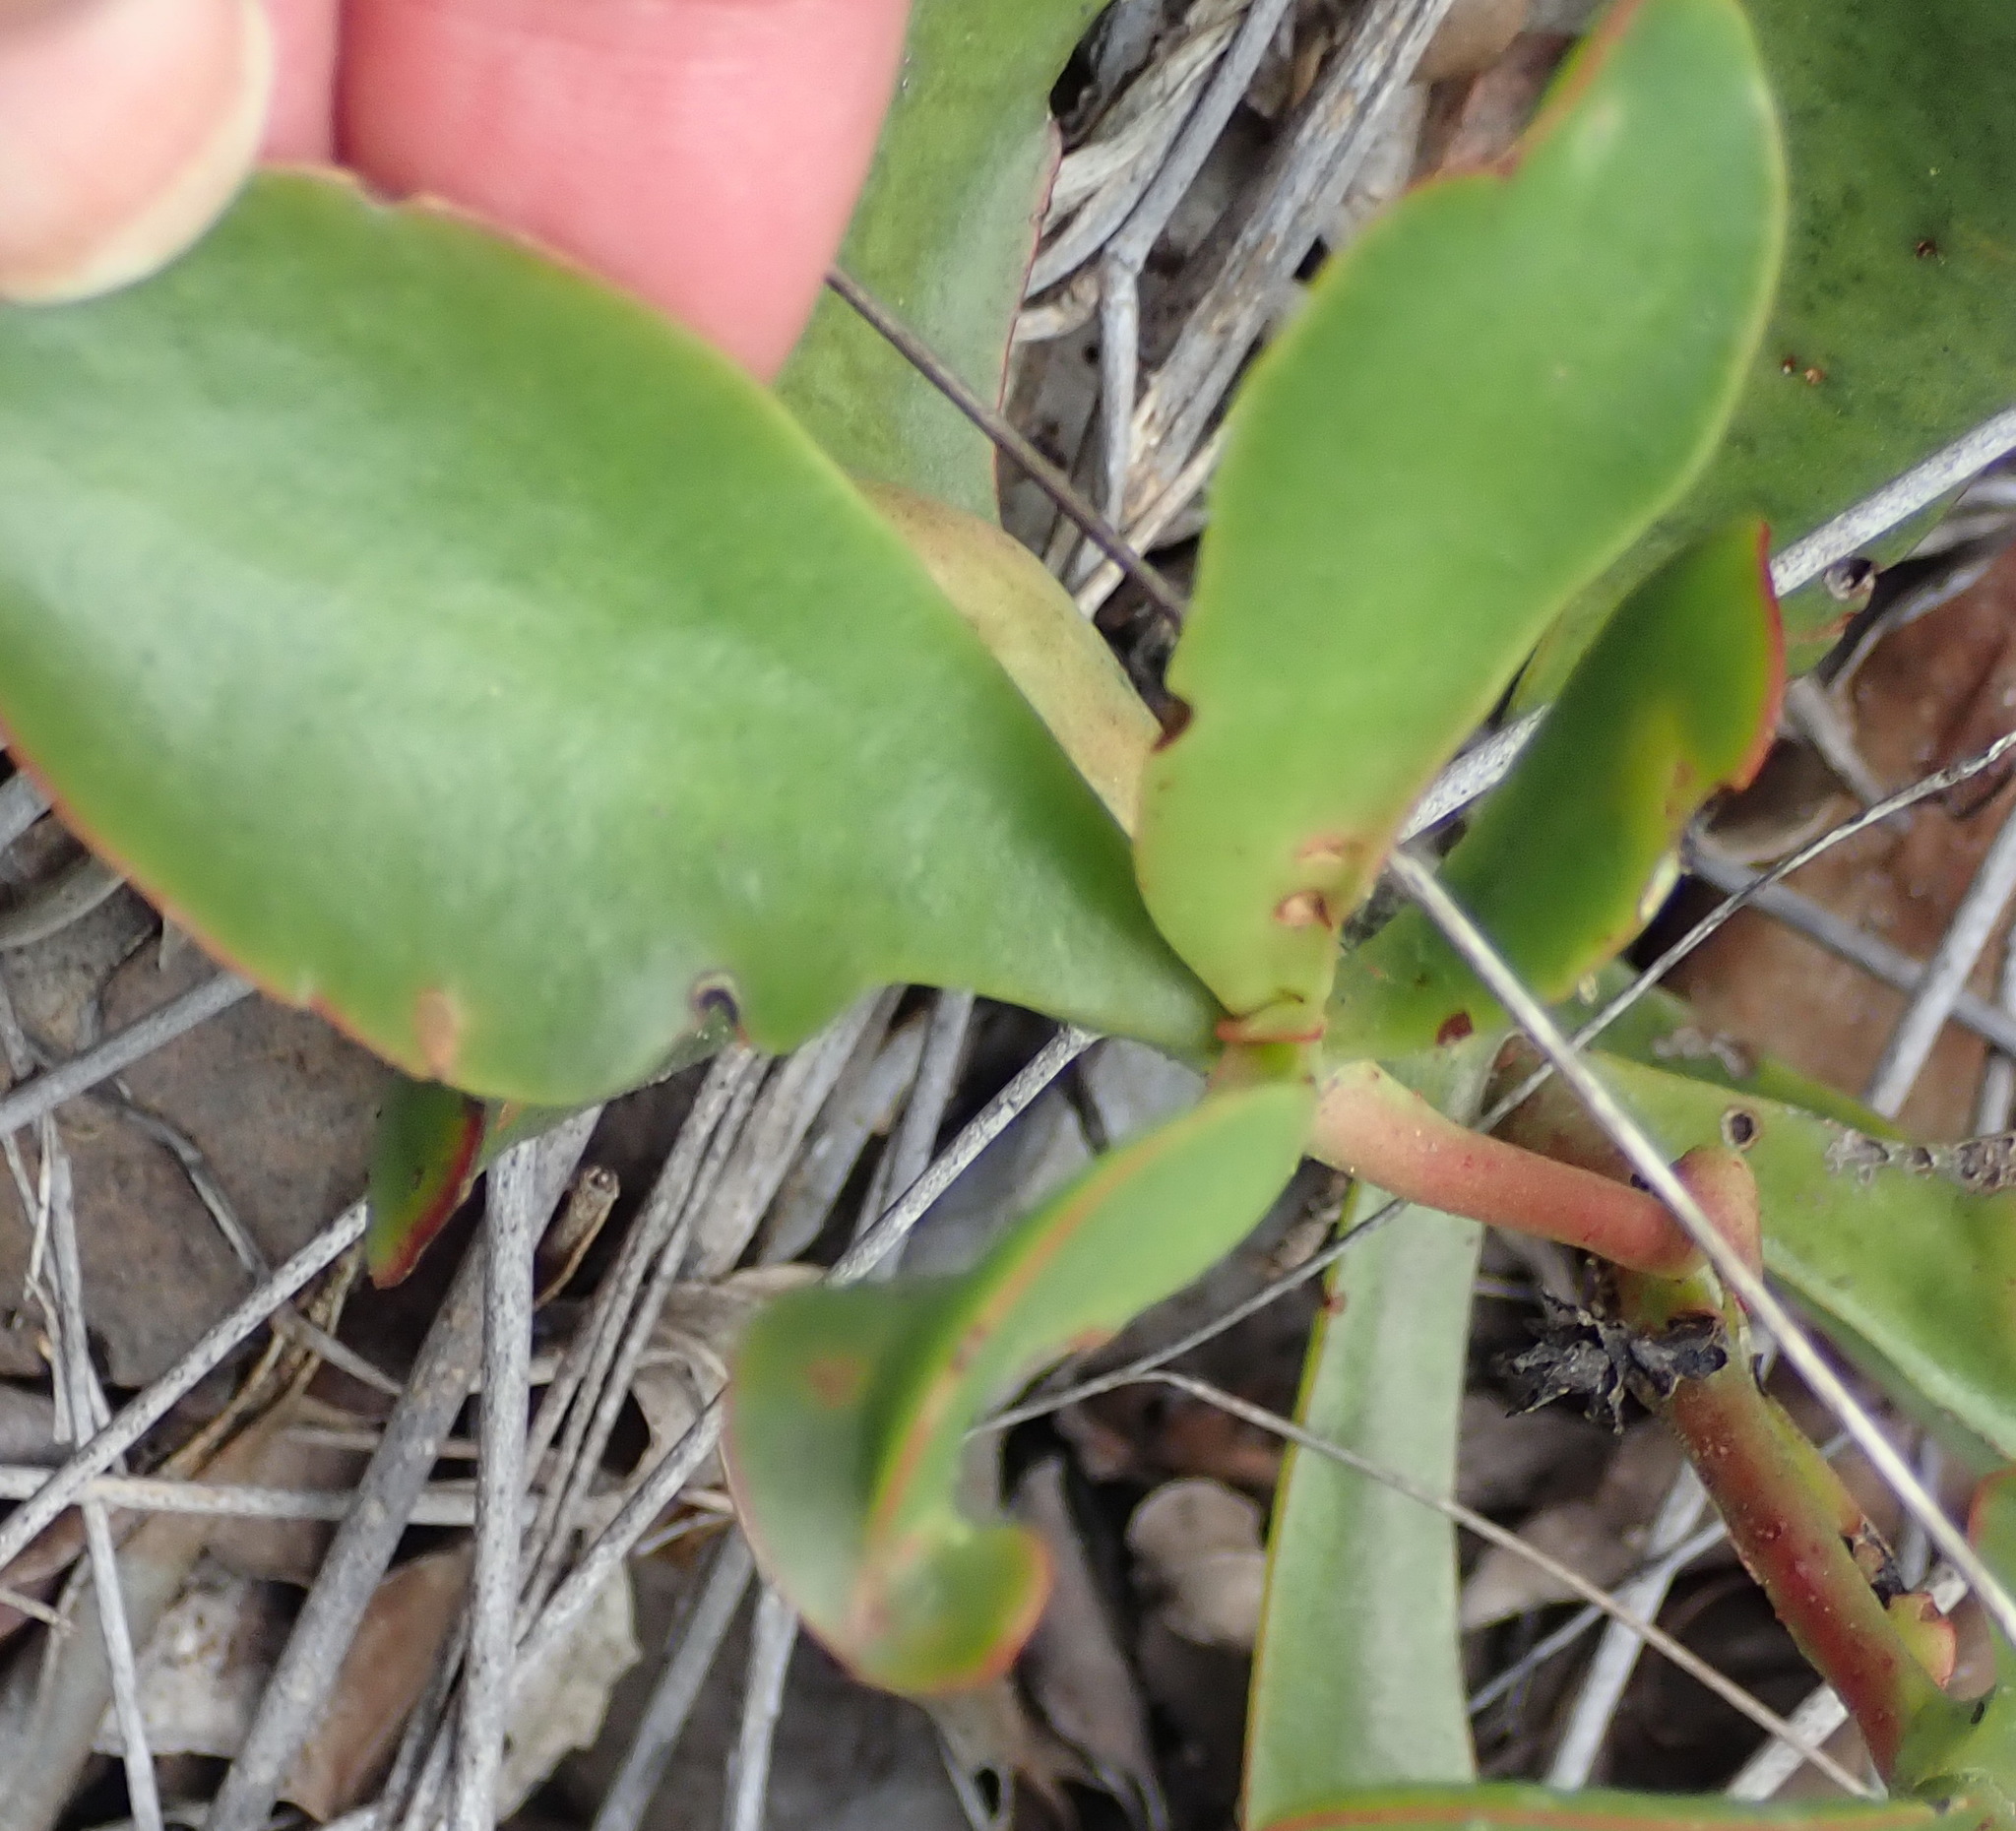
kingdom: Plantae
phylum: Tracheophyta
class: Magnoliopsida
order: Saxifragales
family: Crassulaceae
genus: Crassula
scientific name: Crassula atropurpurea
